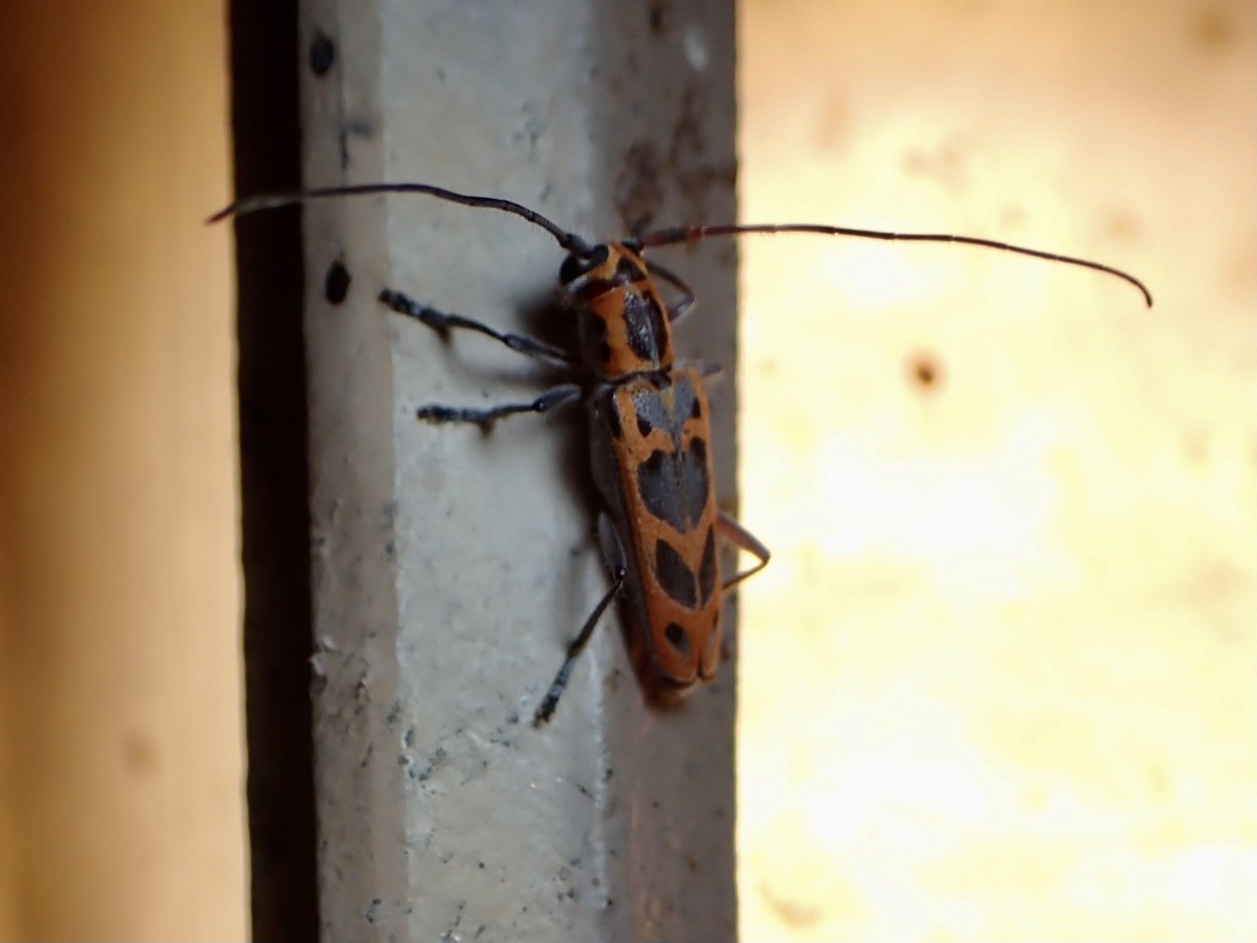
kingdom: Animalia
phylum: Arthropoda
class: Insecta
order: Coleoptera
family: Cerambycidae
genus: Saperda
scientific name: Saperda tridentata
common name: Elm borer
